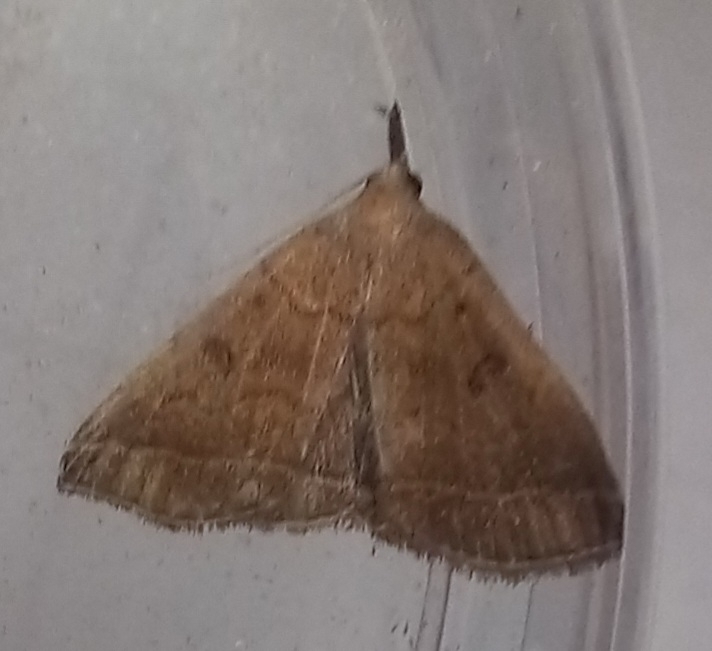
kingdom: Animalia
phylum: Arthropoda
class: Insecta
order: Lepidoptera
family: Erebidae
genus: Pechipogo
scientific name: Pechipogo plumigeralis
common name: Plumed fan-foot
